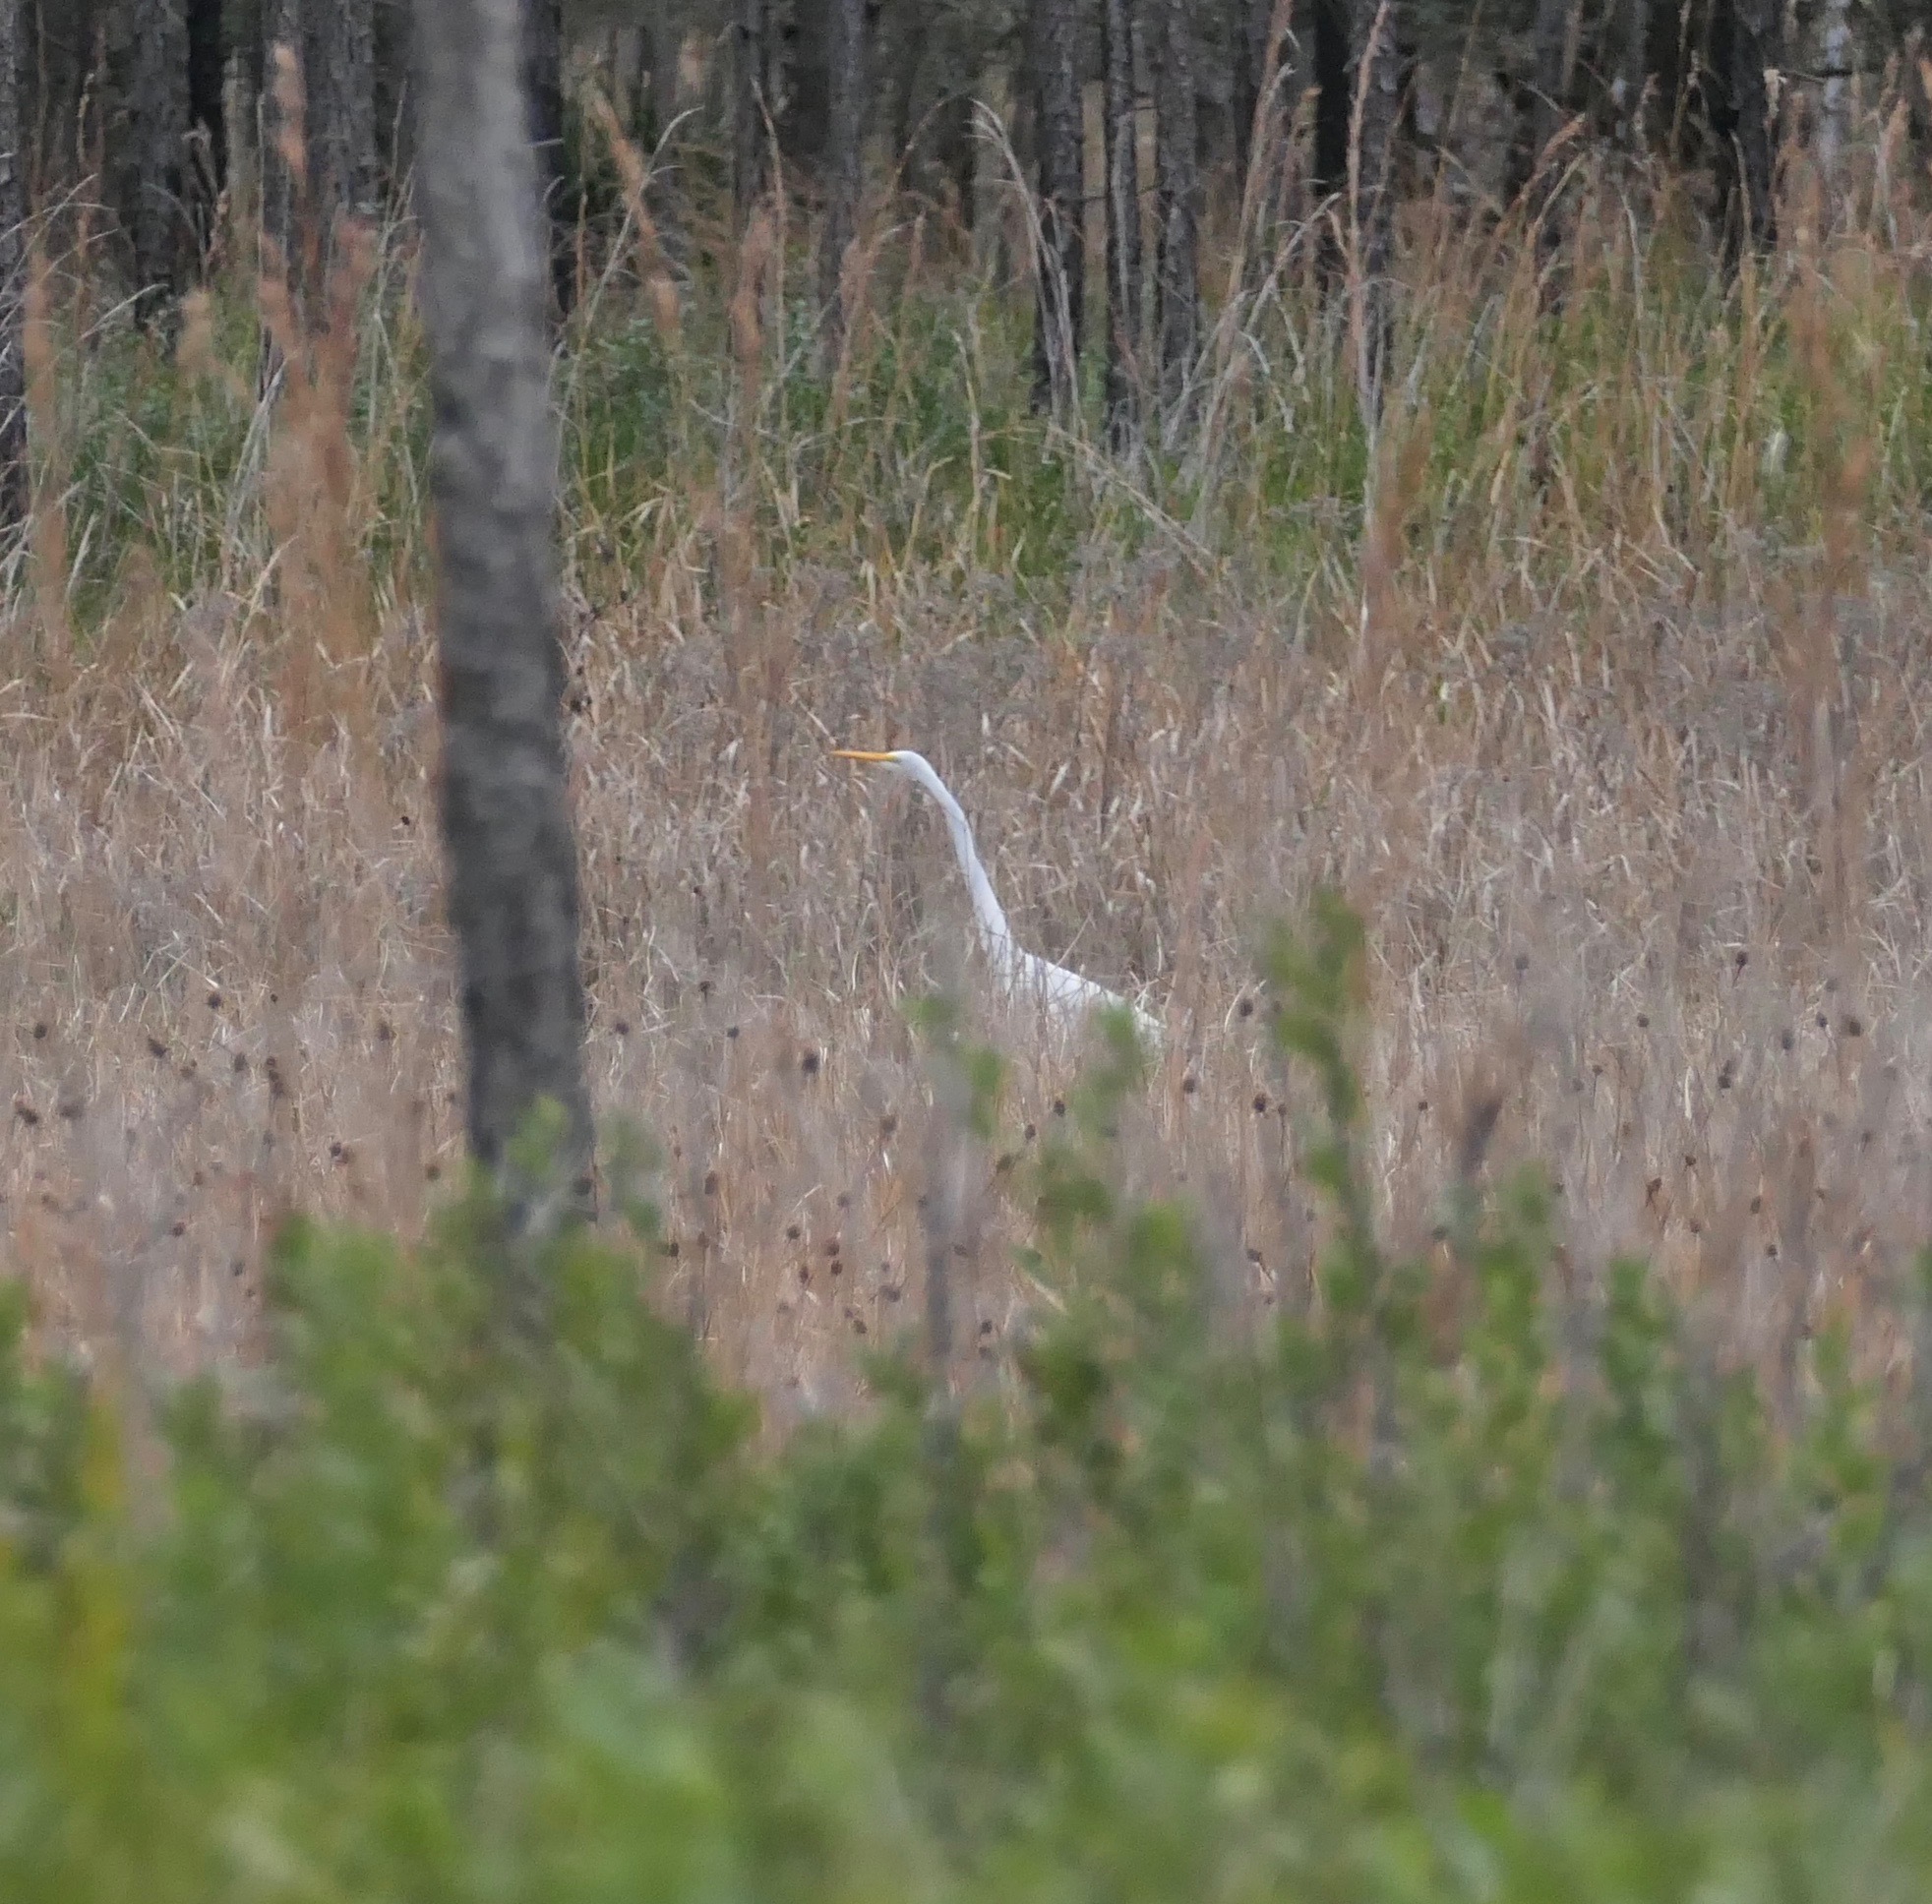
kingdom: Animalia
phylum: Chordata
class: Aves
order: Pelecaniformes
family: Ardeidae
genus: Ardea
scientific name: Ardea alba
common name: Great egret
